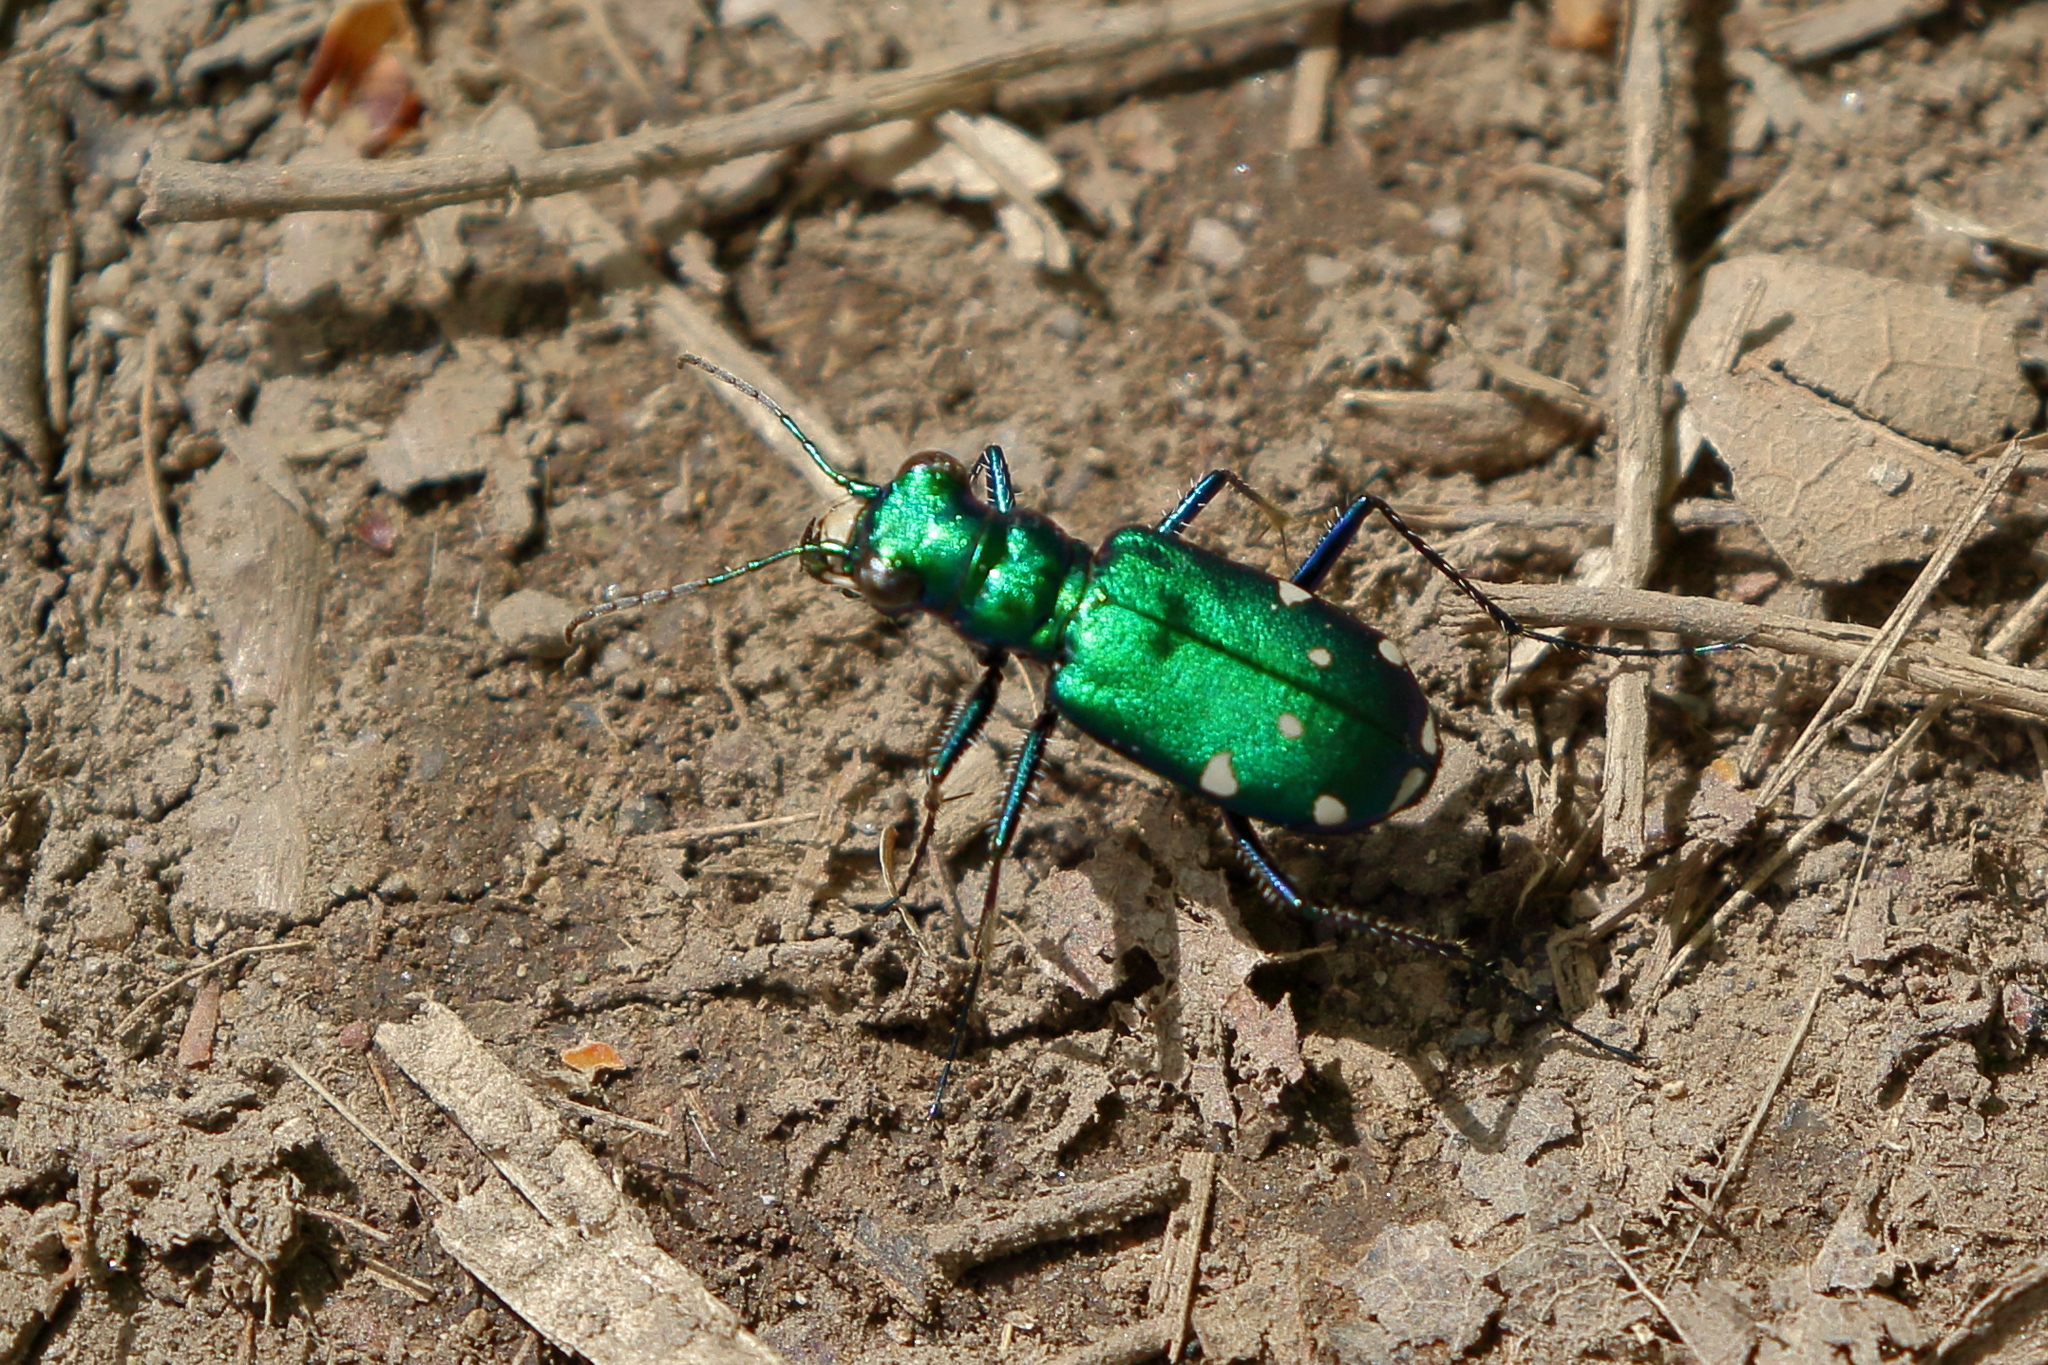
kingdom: Animalia
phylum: Arthropoda
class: Insecta
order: Coleoptera
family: Carabidae
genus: Cicindela
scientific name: Cicindela sexguttata
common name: Six-spotted tiger beetle
